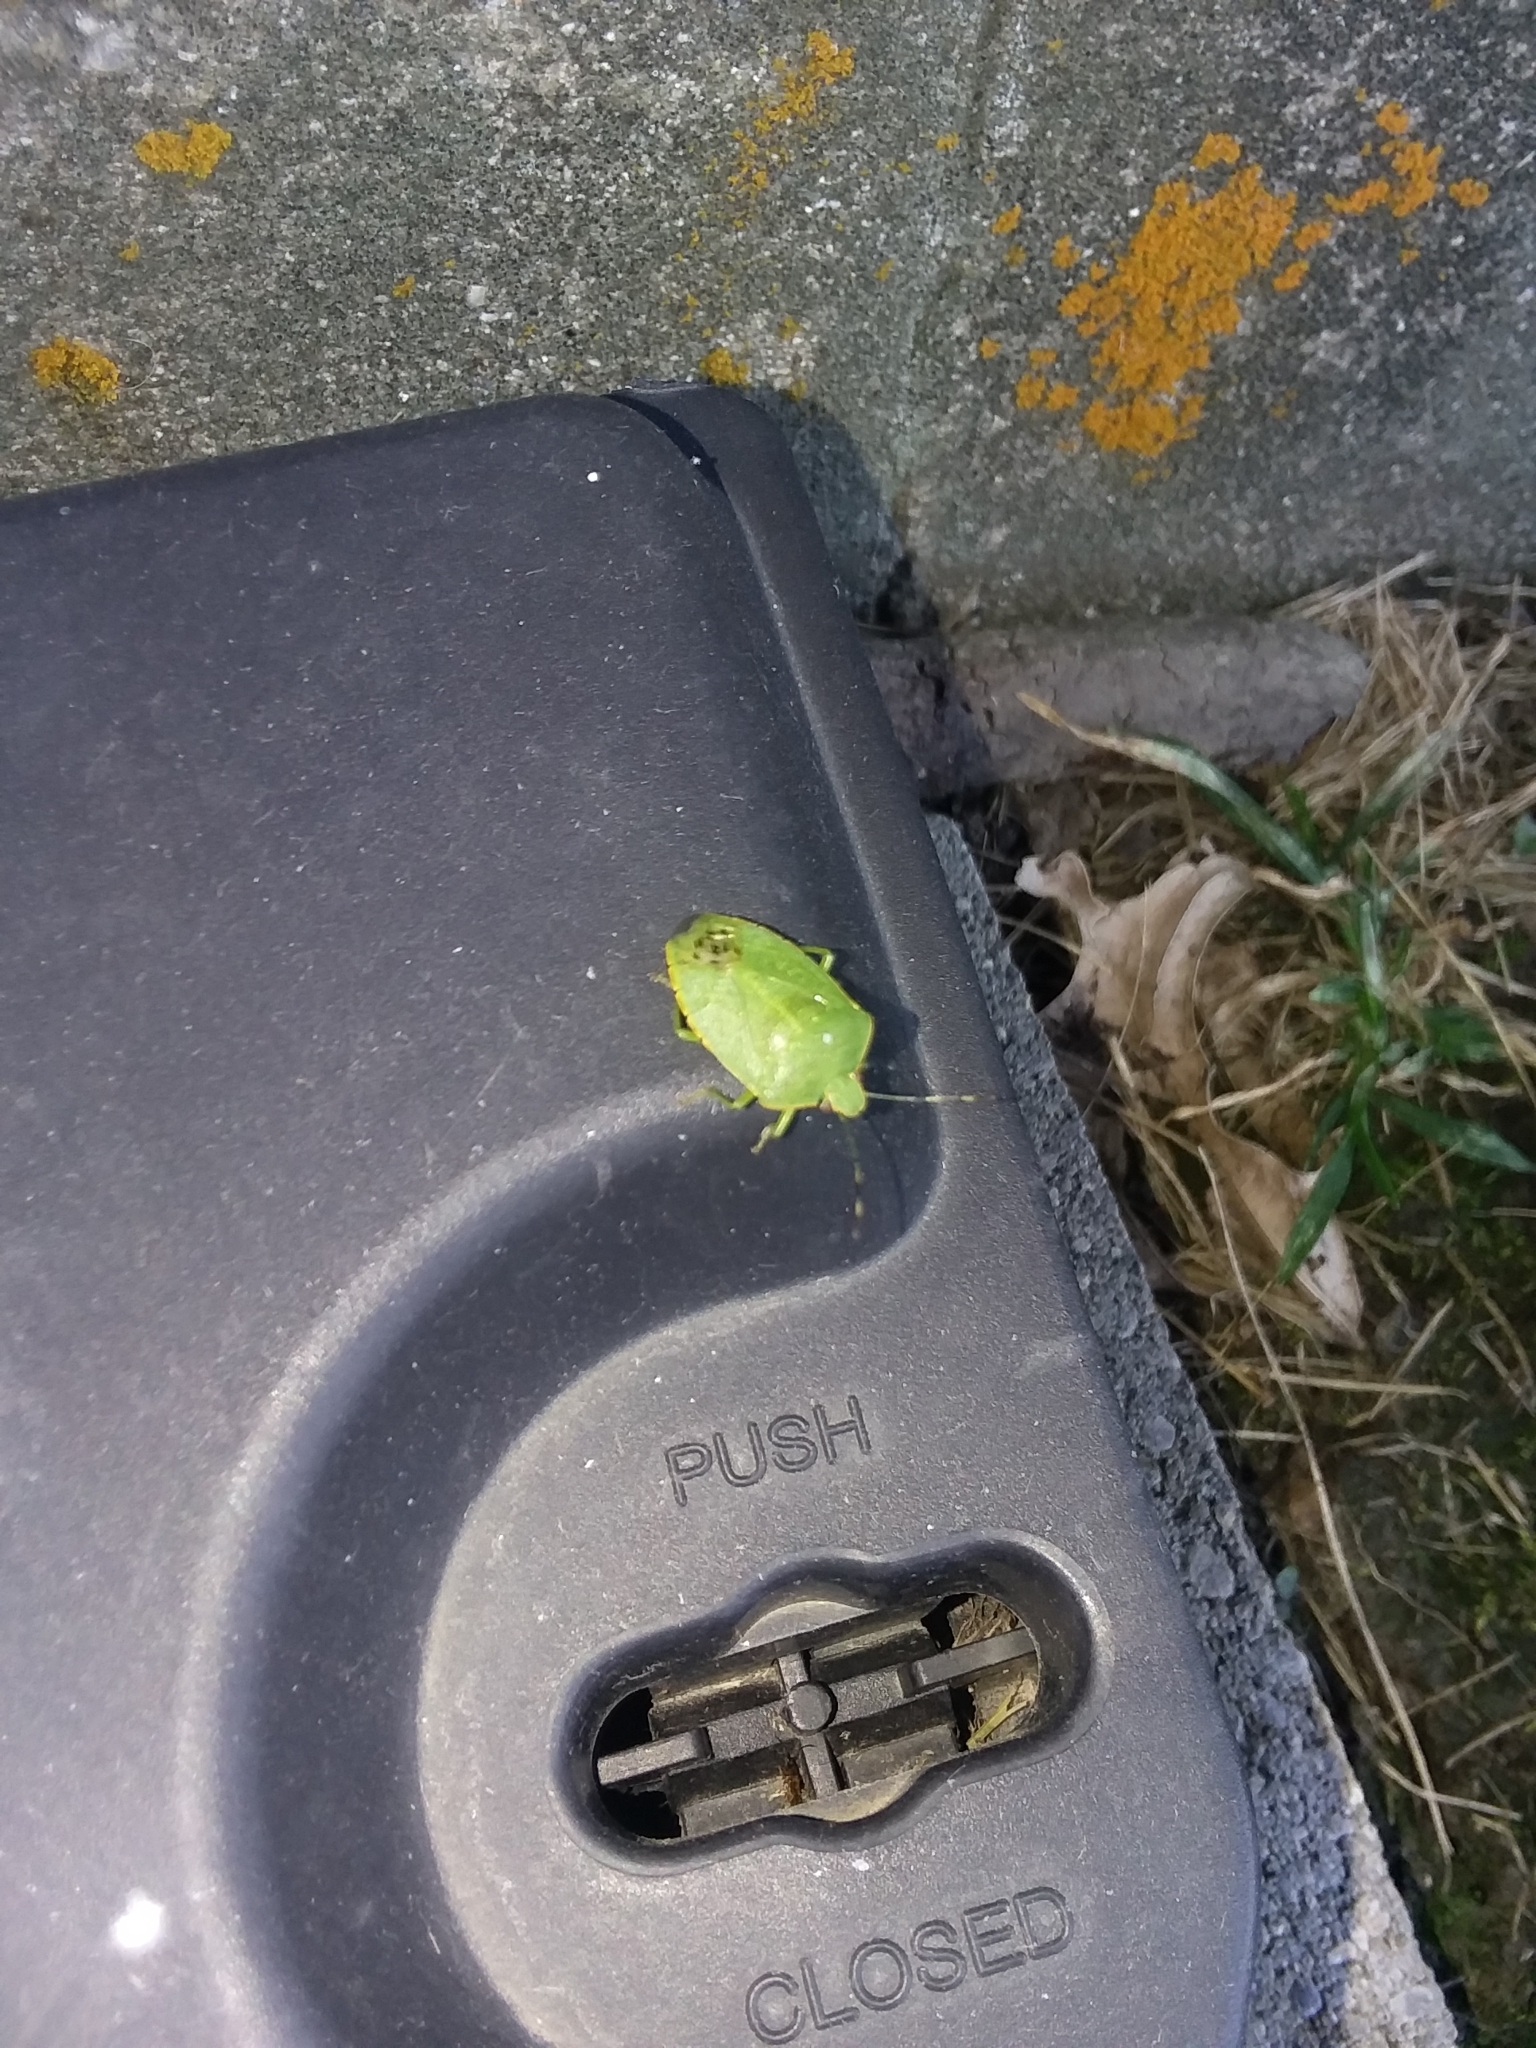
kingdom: Animalia
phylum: Arthropoda
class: Insecta
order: Hemiptera
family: Pentatomidae
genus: Chinavia
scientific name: Chinavia hilaris
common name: Green stink bug
